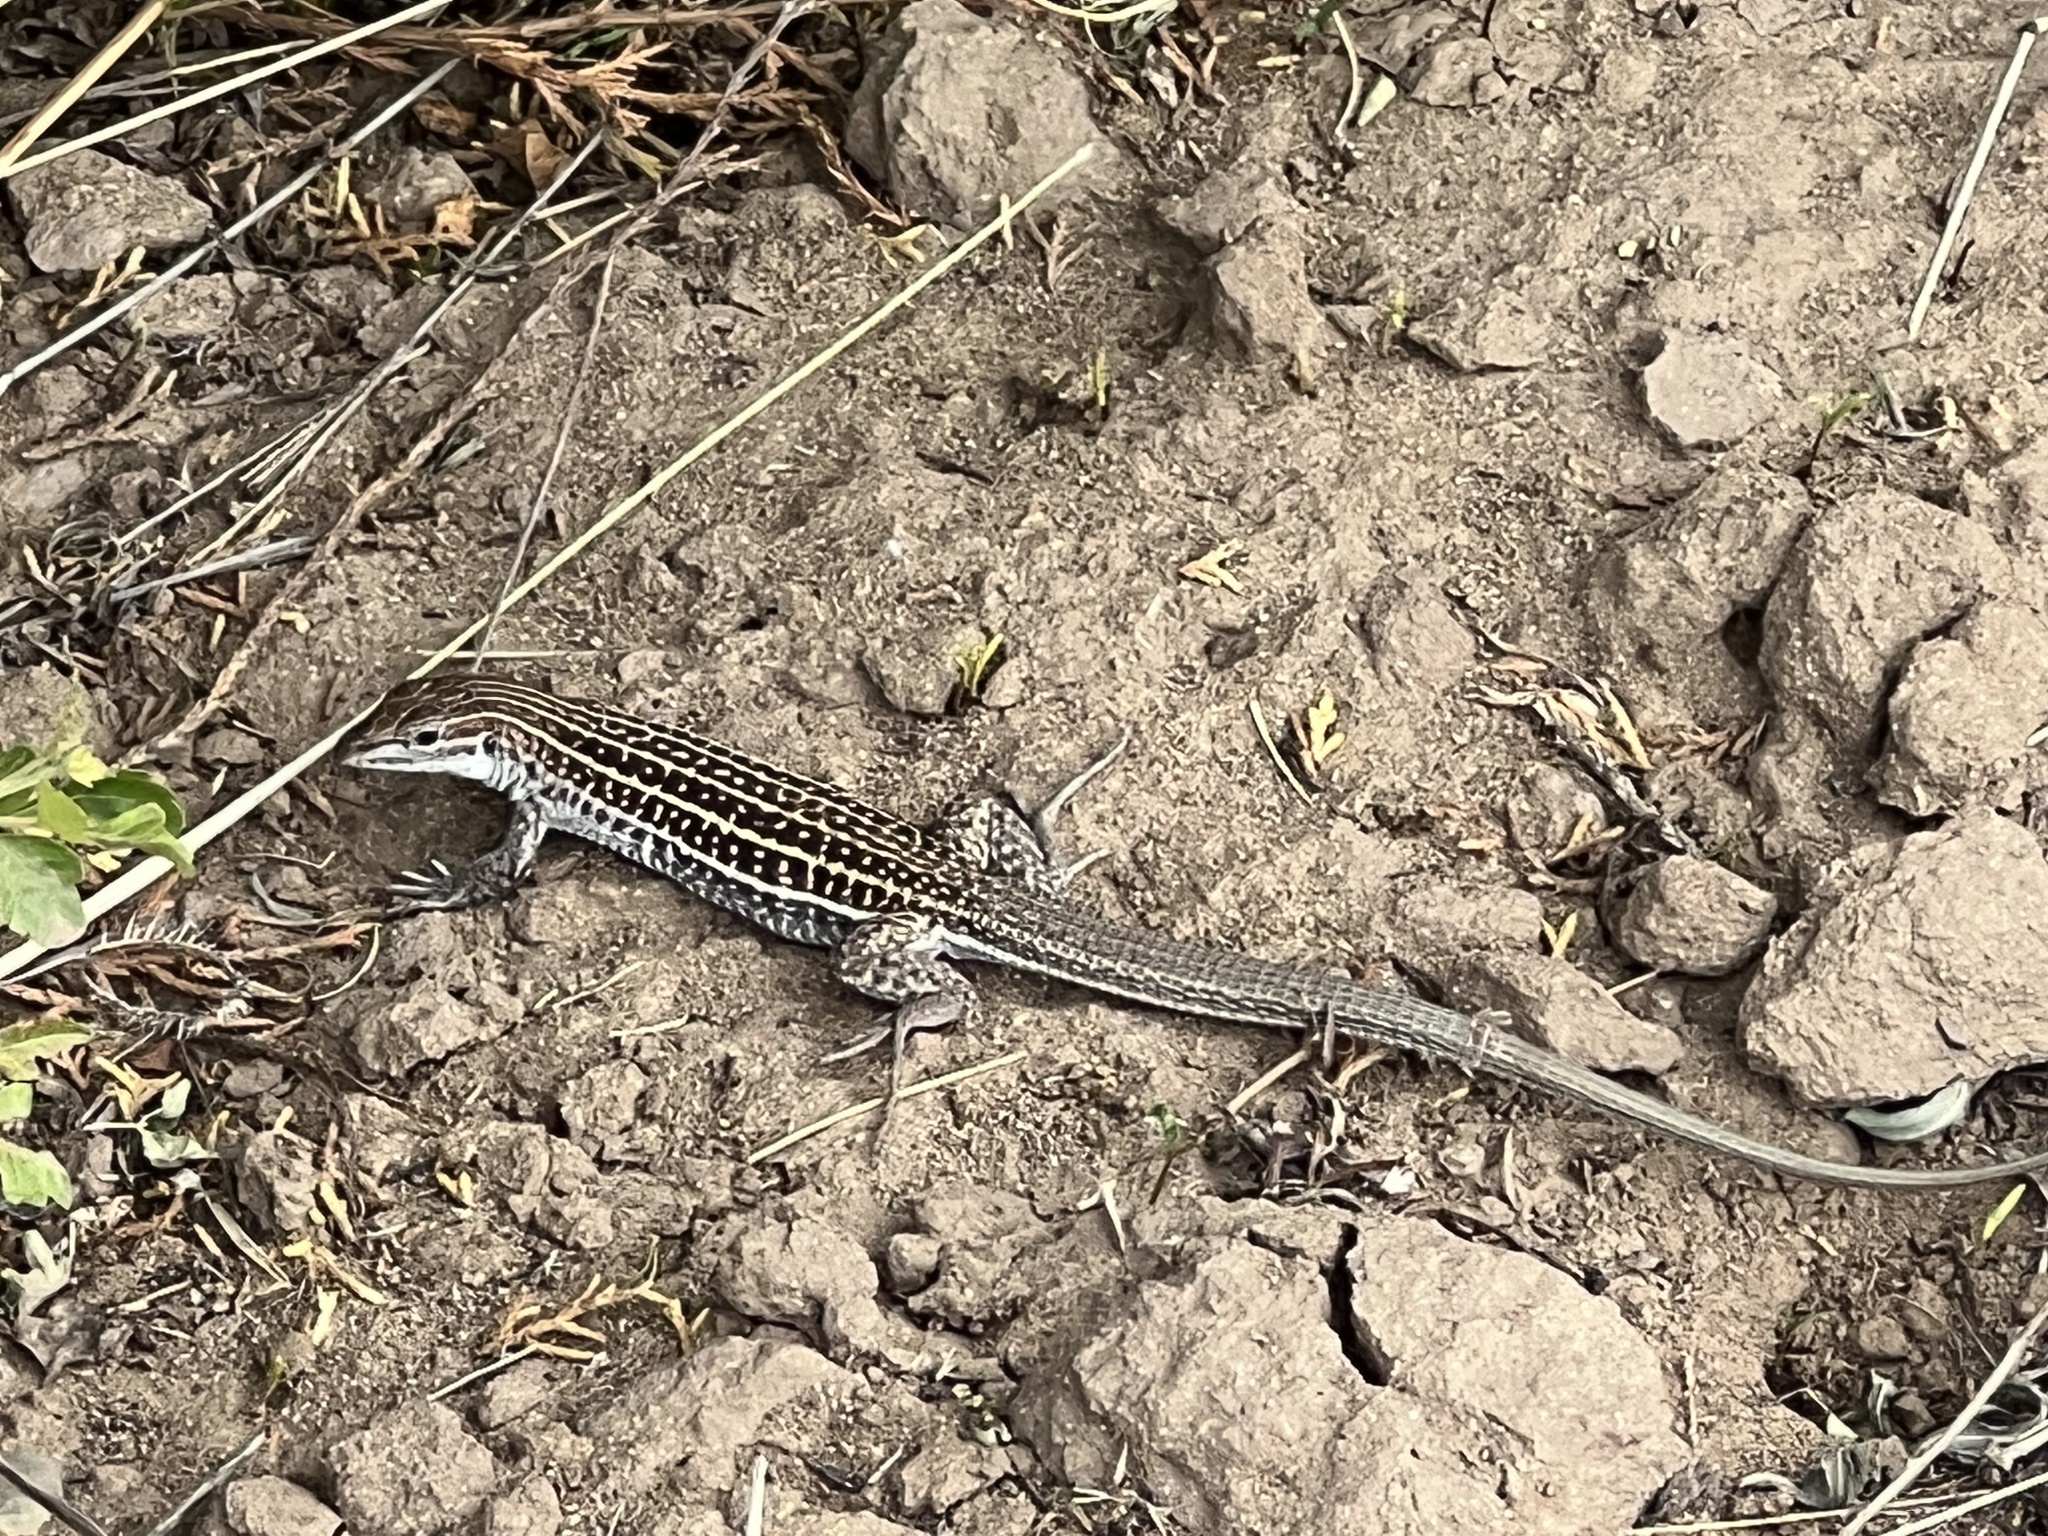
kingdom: Animalia
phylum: Chordata
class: Squamata
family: Teiidae
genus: Aspidoscelis
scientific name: Aspidoscelis exsanguis
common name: Chihuahuan spotted whiptail
